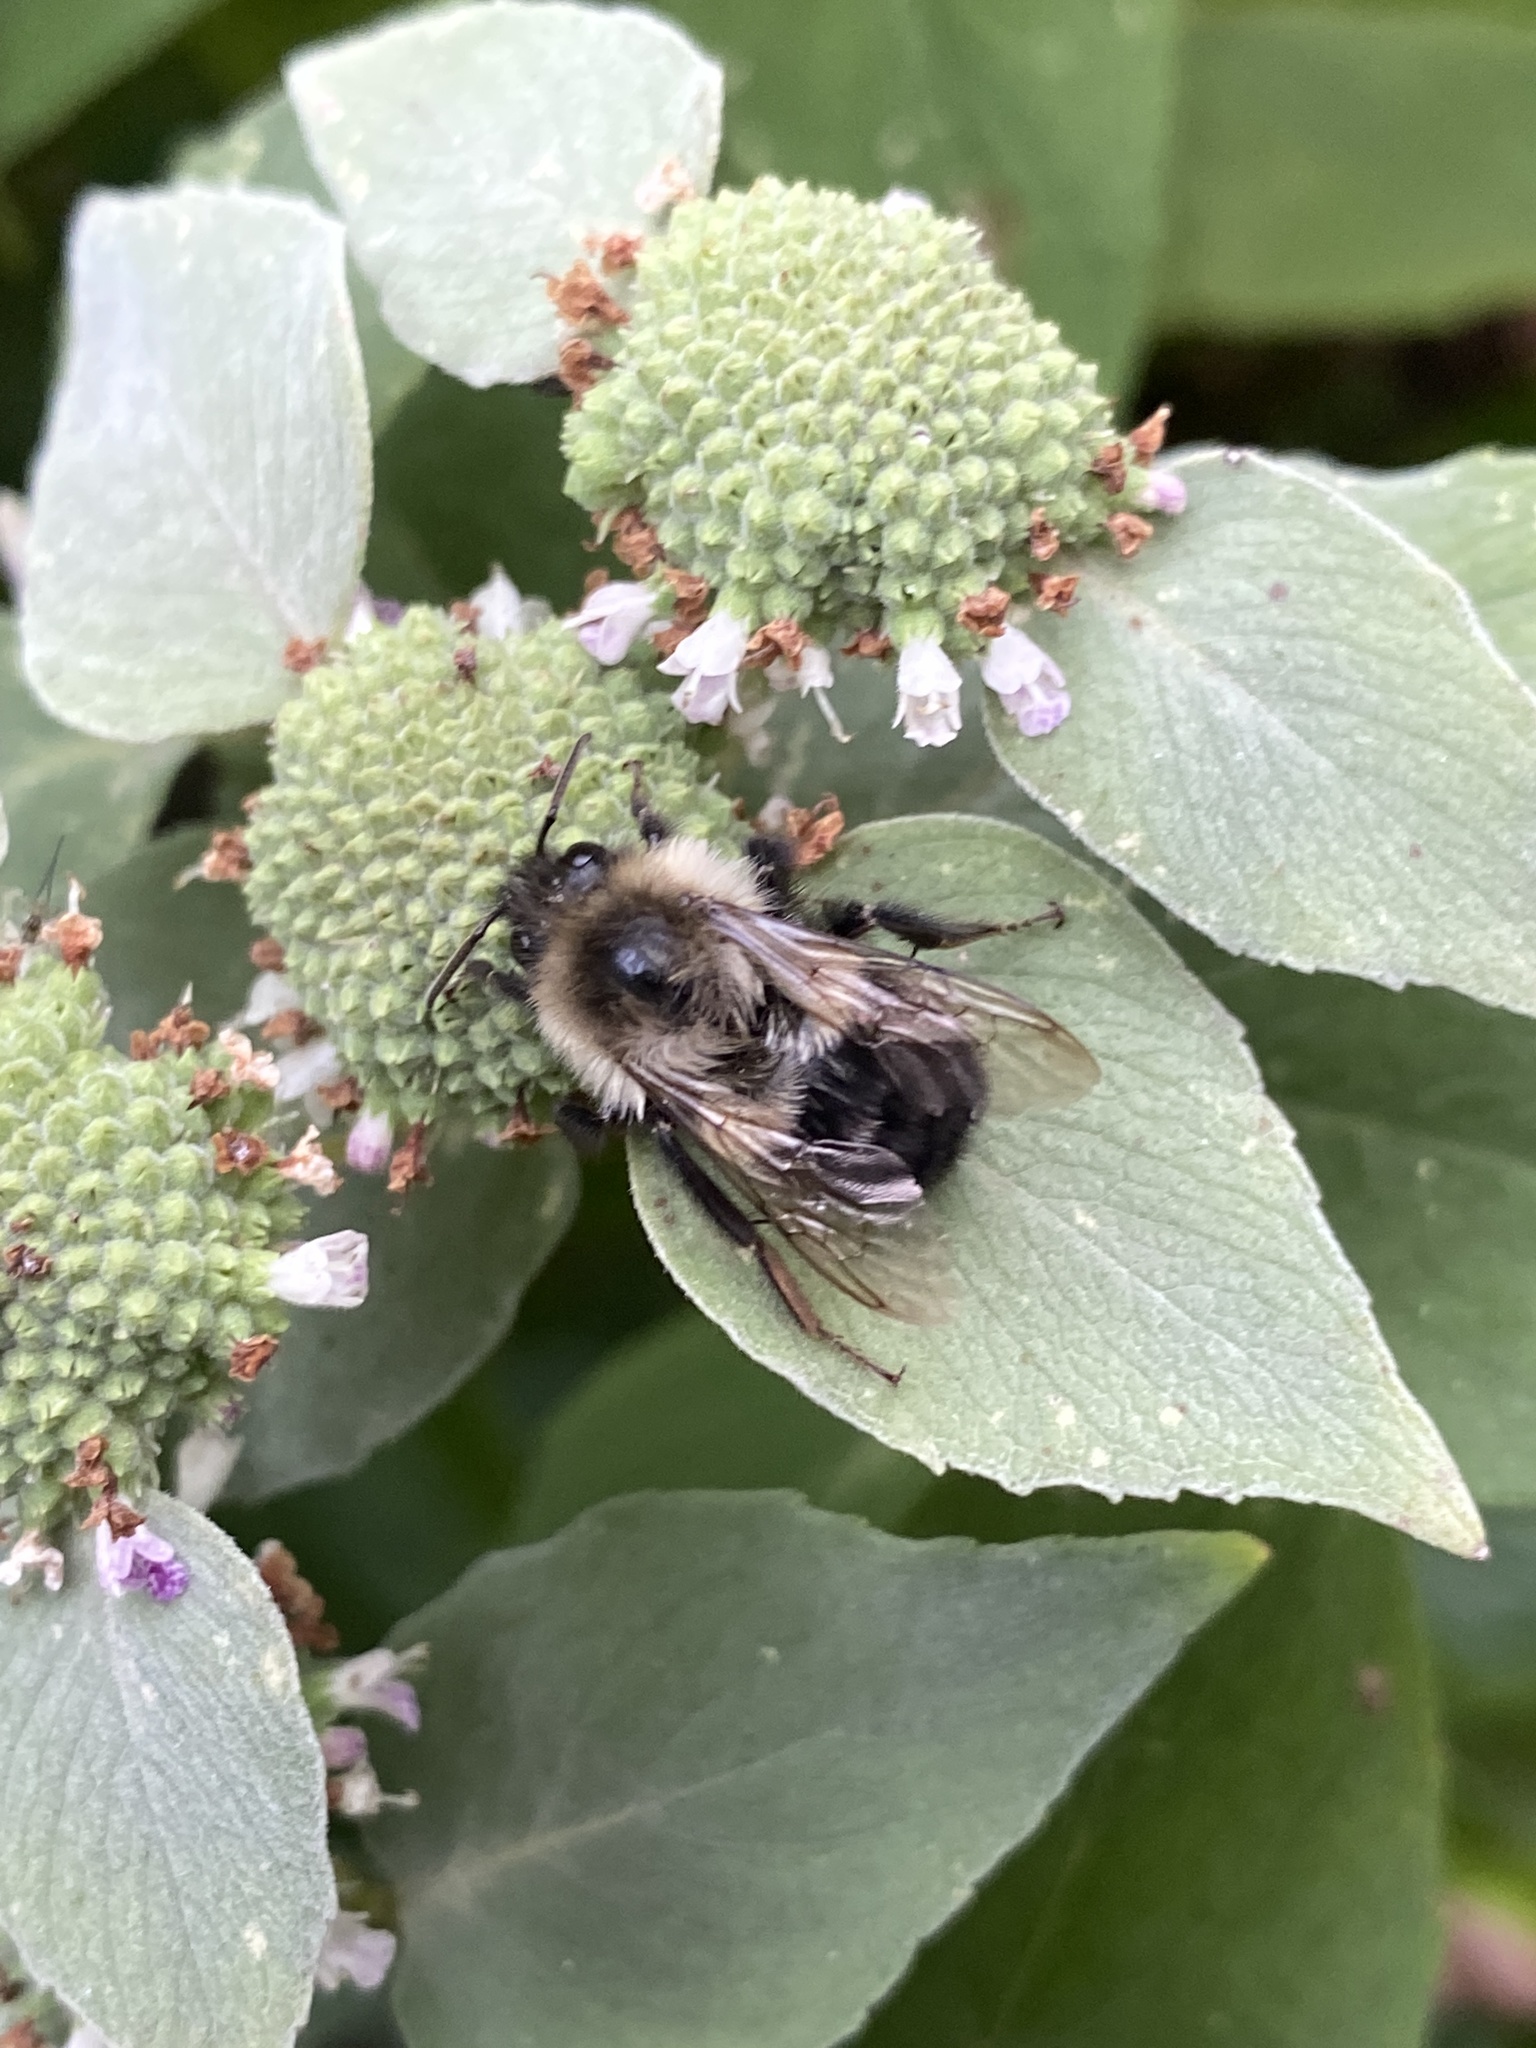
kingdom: Animalia
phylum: Arthropoda
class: Insecta
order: Hymenoptera
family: Apidae
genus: Bombus
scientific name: Bombus impatiens
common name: Common eastern bumble bee
